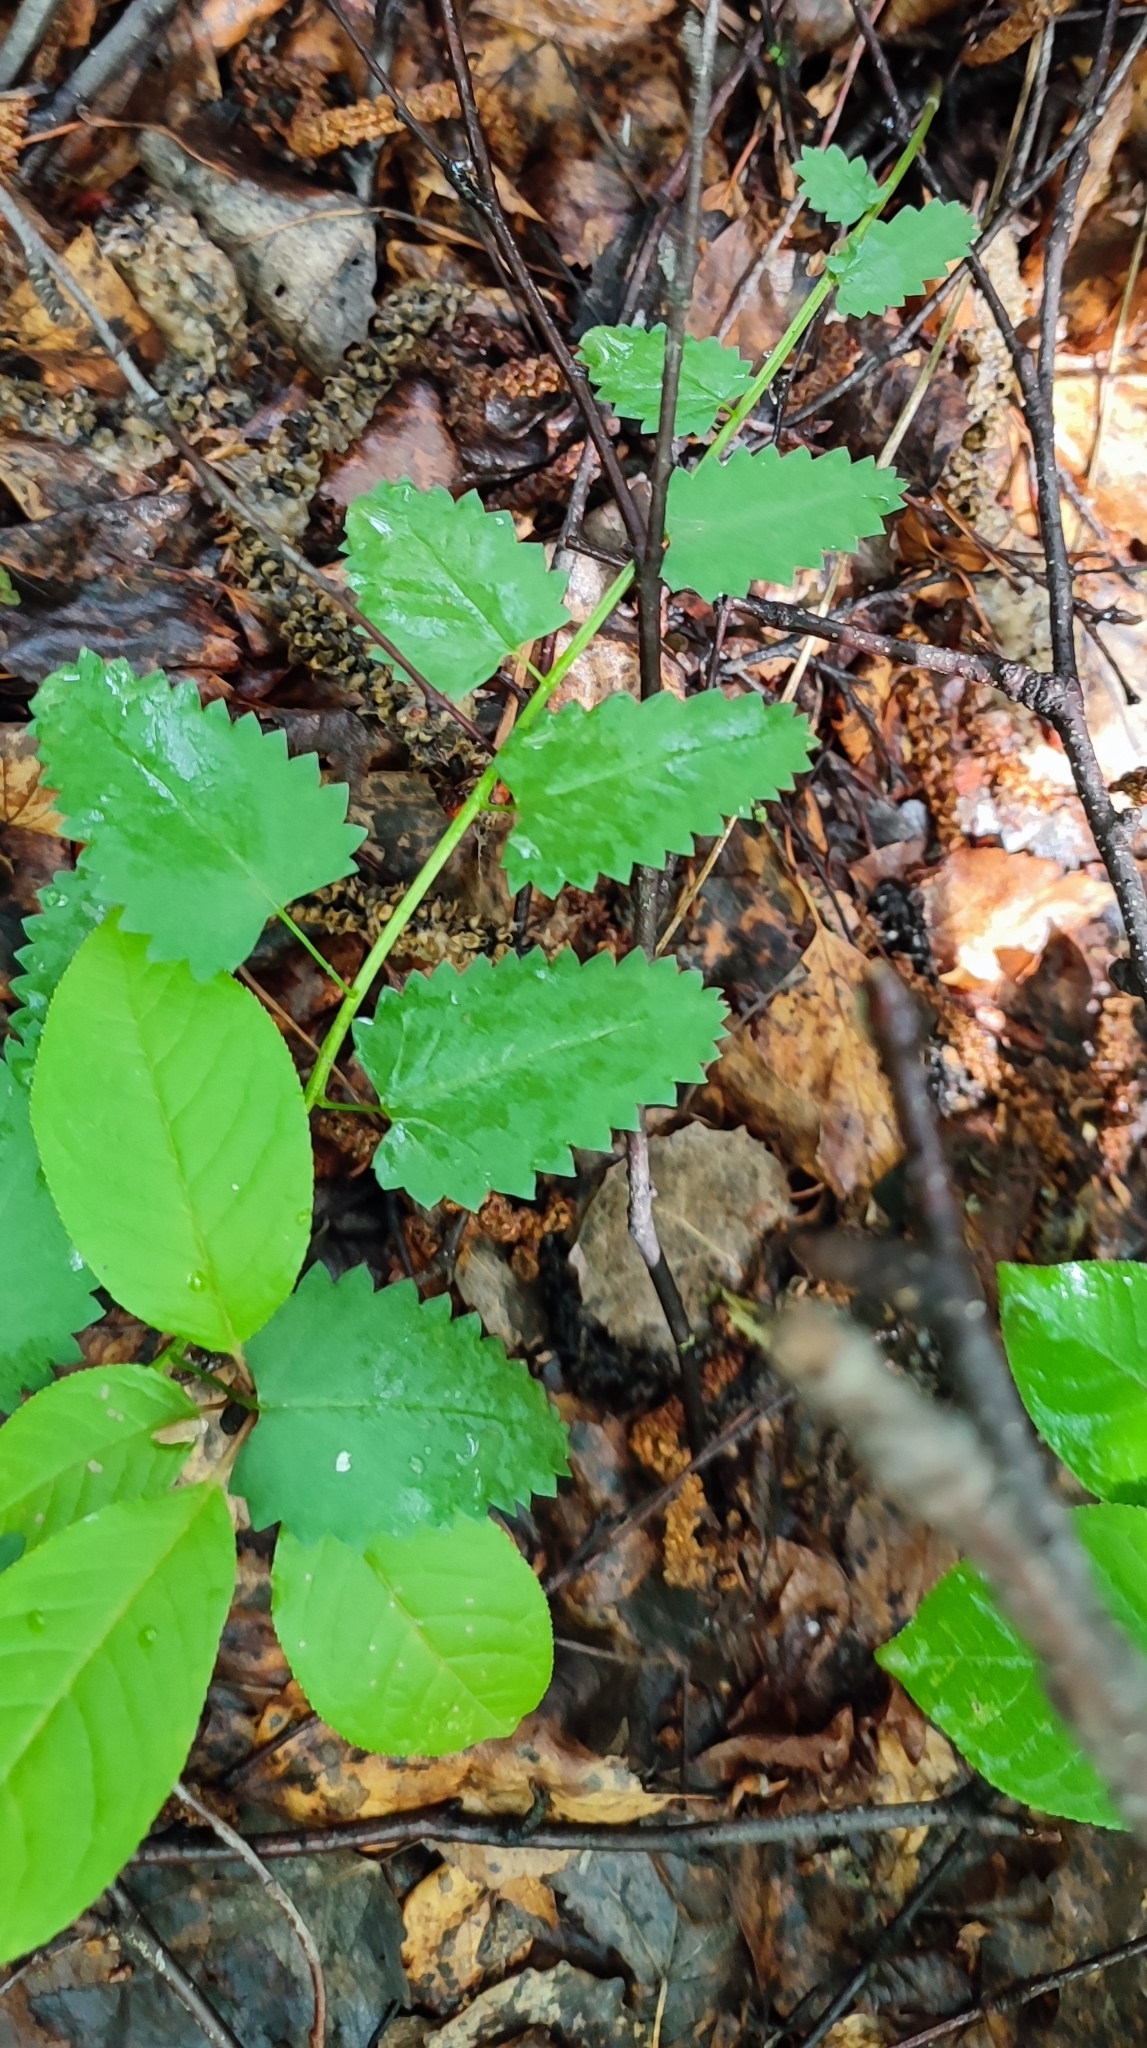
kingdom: Plantae
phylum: Tracheophyta
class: Magnoliopsida
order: Rosales
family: Rosaceae
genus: Sanguisorba
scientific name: Sanguisorba officinalis
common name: Great burnet
